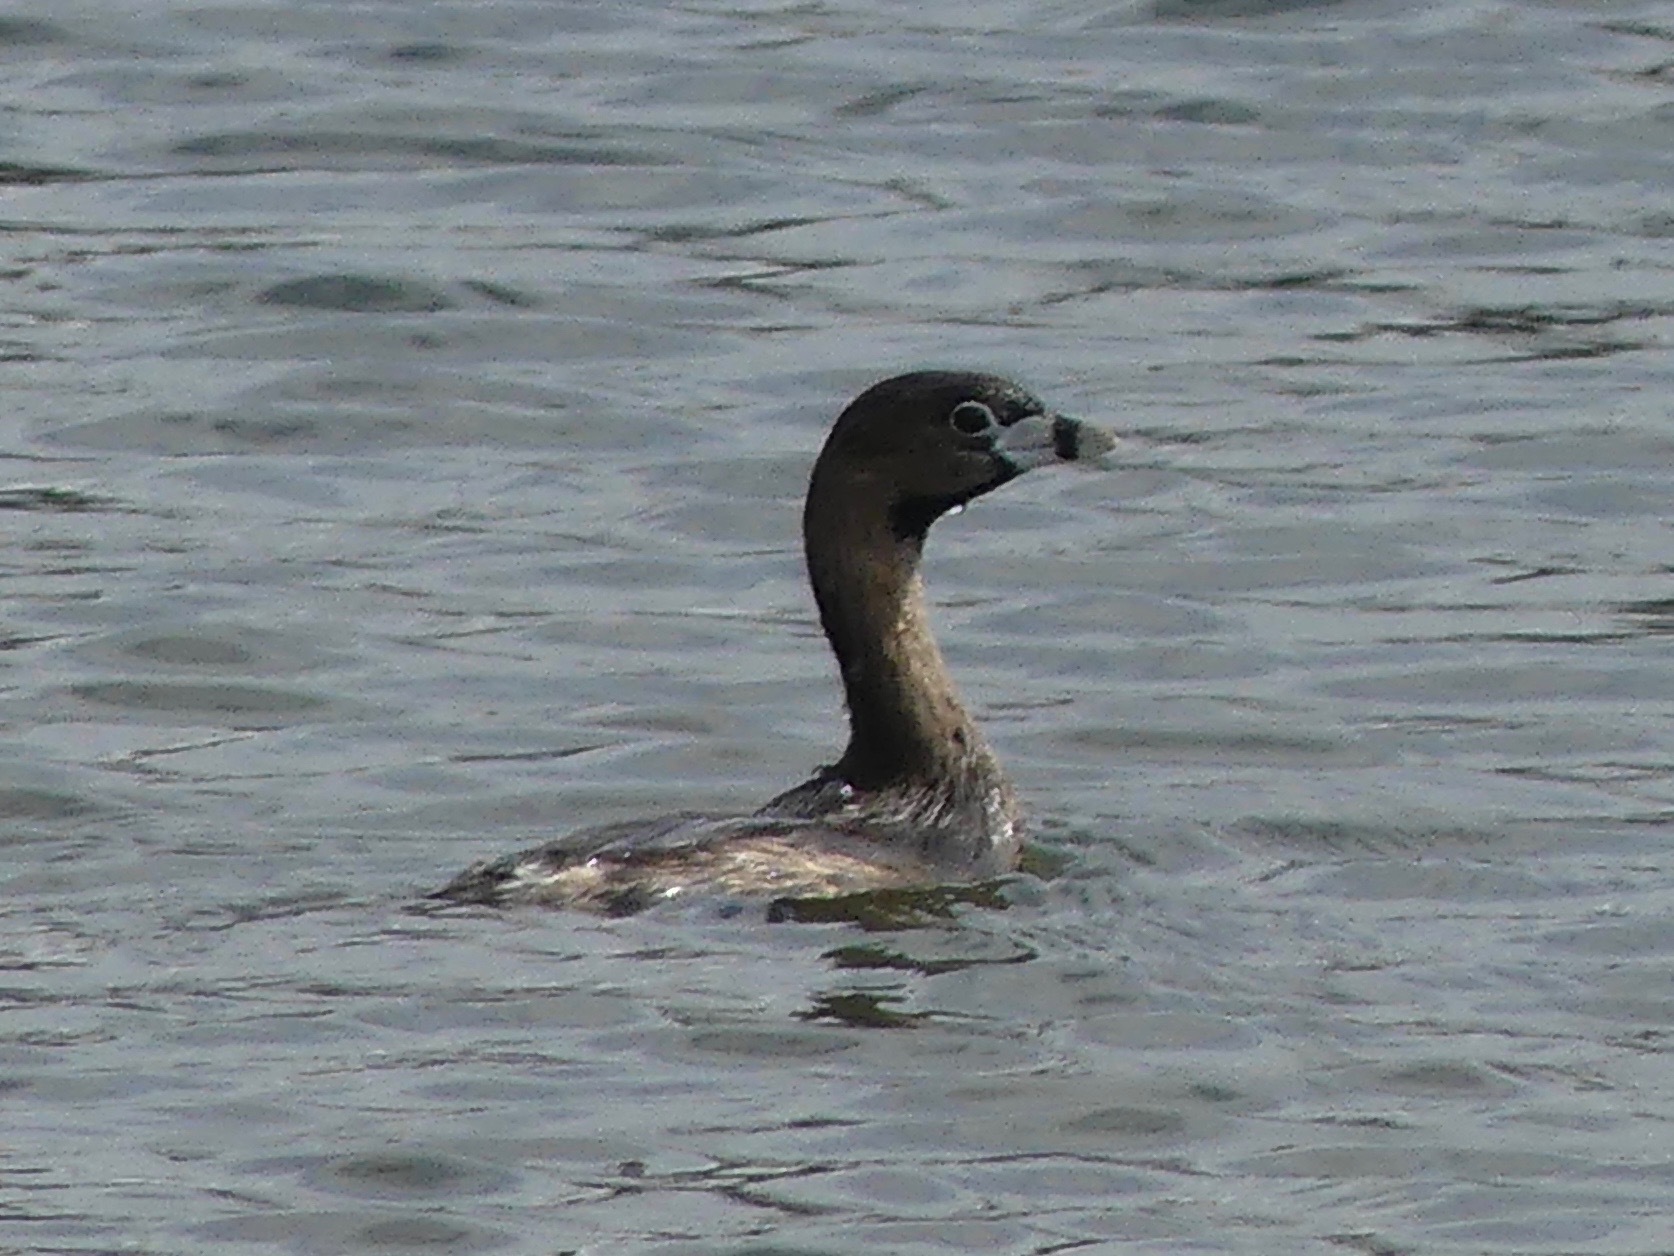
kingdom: Animalia
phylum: Chordata
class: Aves
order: Podicipediformes
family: Podicipedidae
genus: Podilymbus
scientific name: Podilymbus podiceps
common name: Pied-billed grebe
